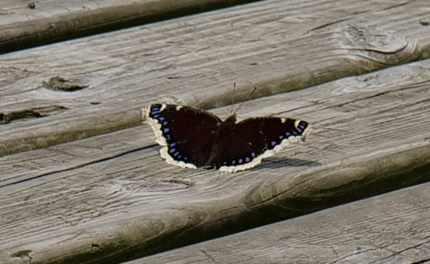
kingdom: Animalia
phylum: Arthropoda
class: Insecta
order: Lepidoptera
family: Nymphalidae
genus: Nymphalis
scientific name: Nymphalis antiopa
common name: Camberwell beauty
